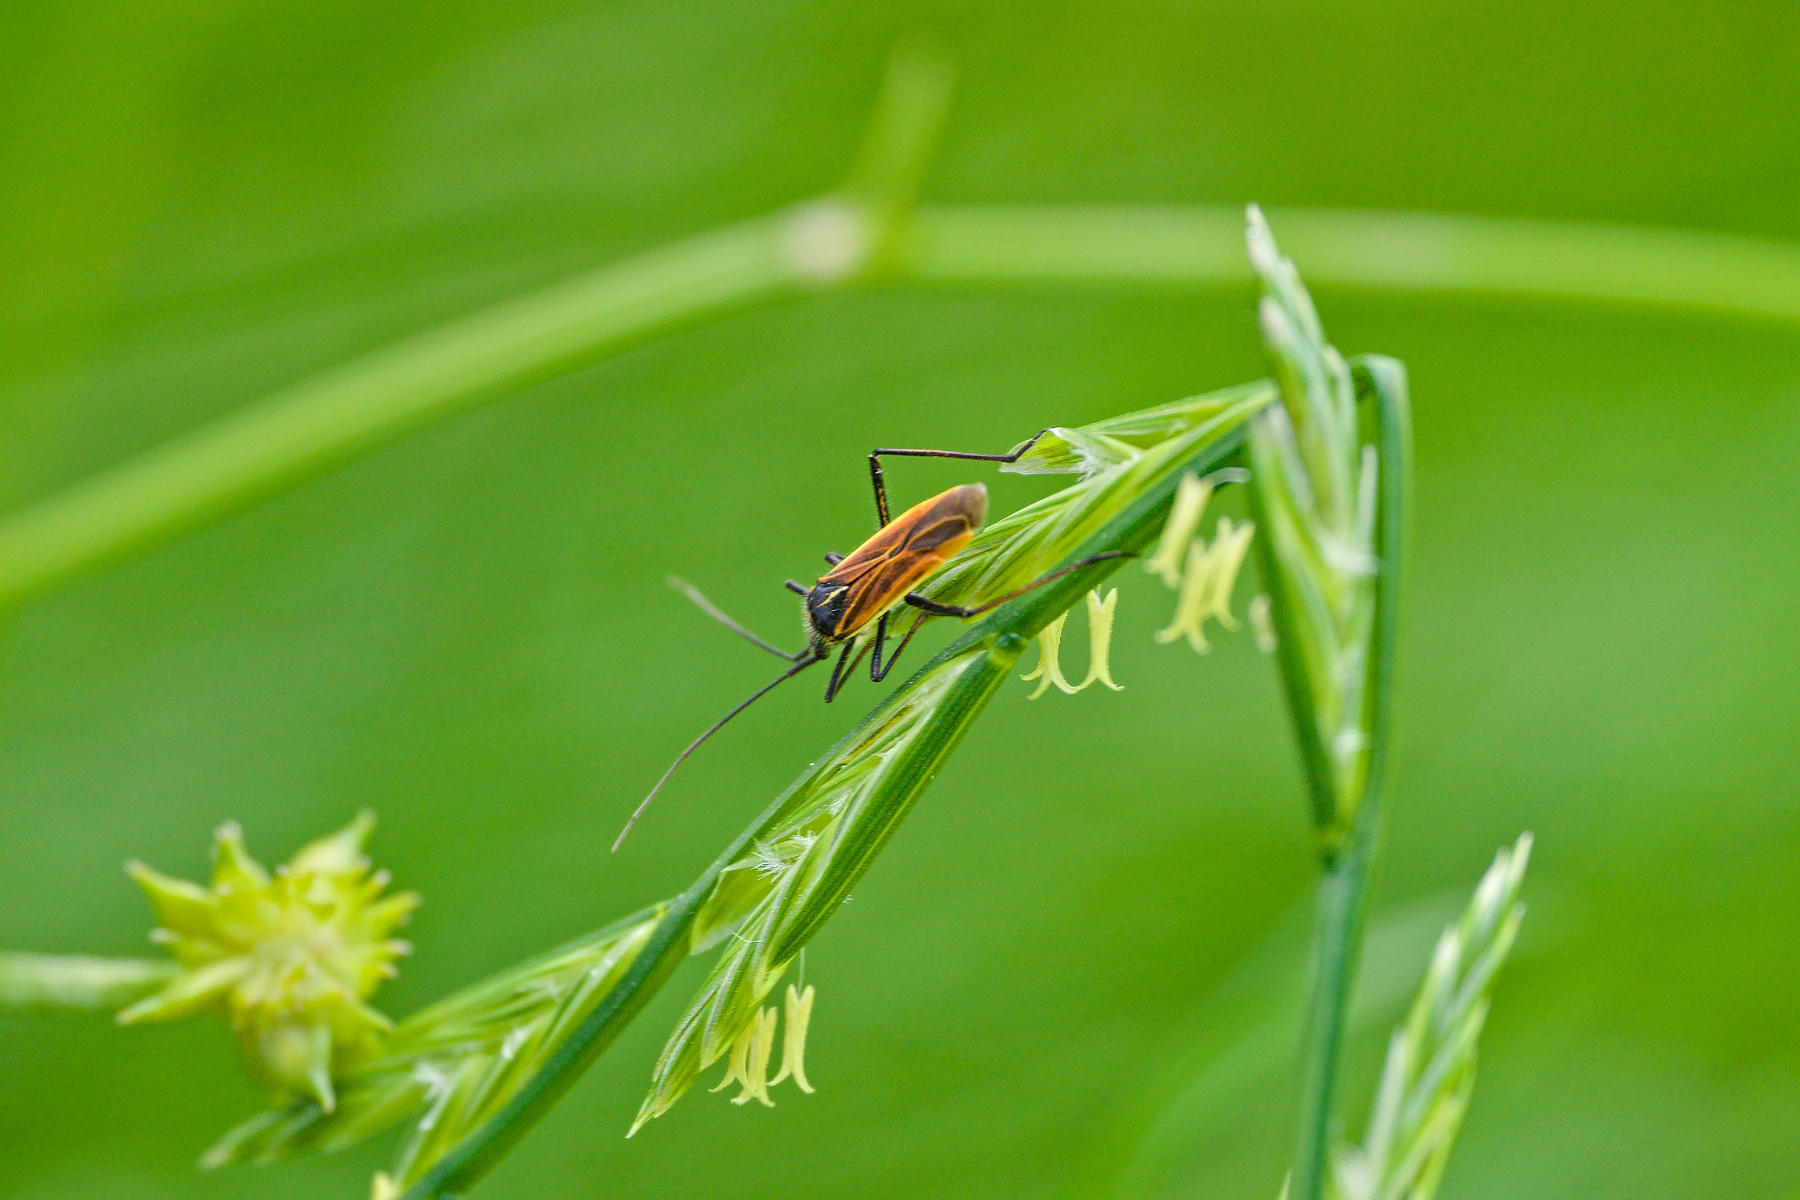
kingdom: Animalia
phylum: Arthropoda
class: Insecta
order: Hemiptera
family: Miridae
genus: Leptopterna
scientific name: Leptopterna dolabrata
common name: Meadow plant bug
